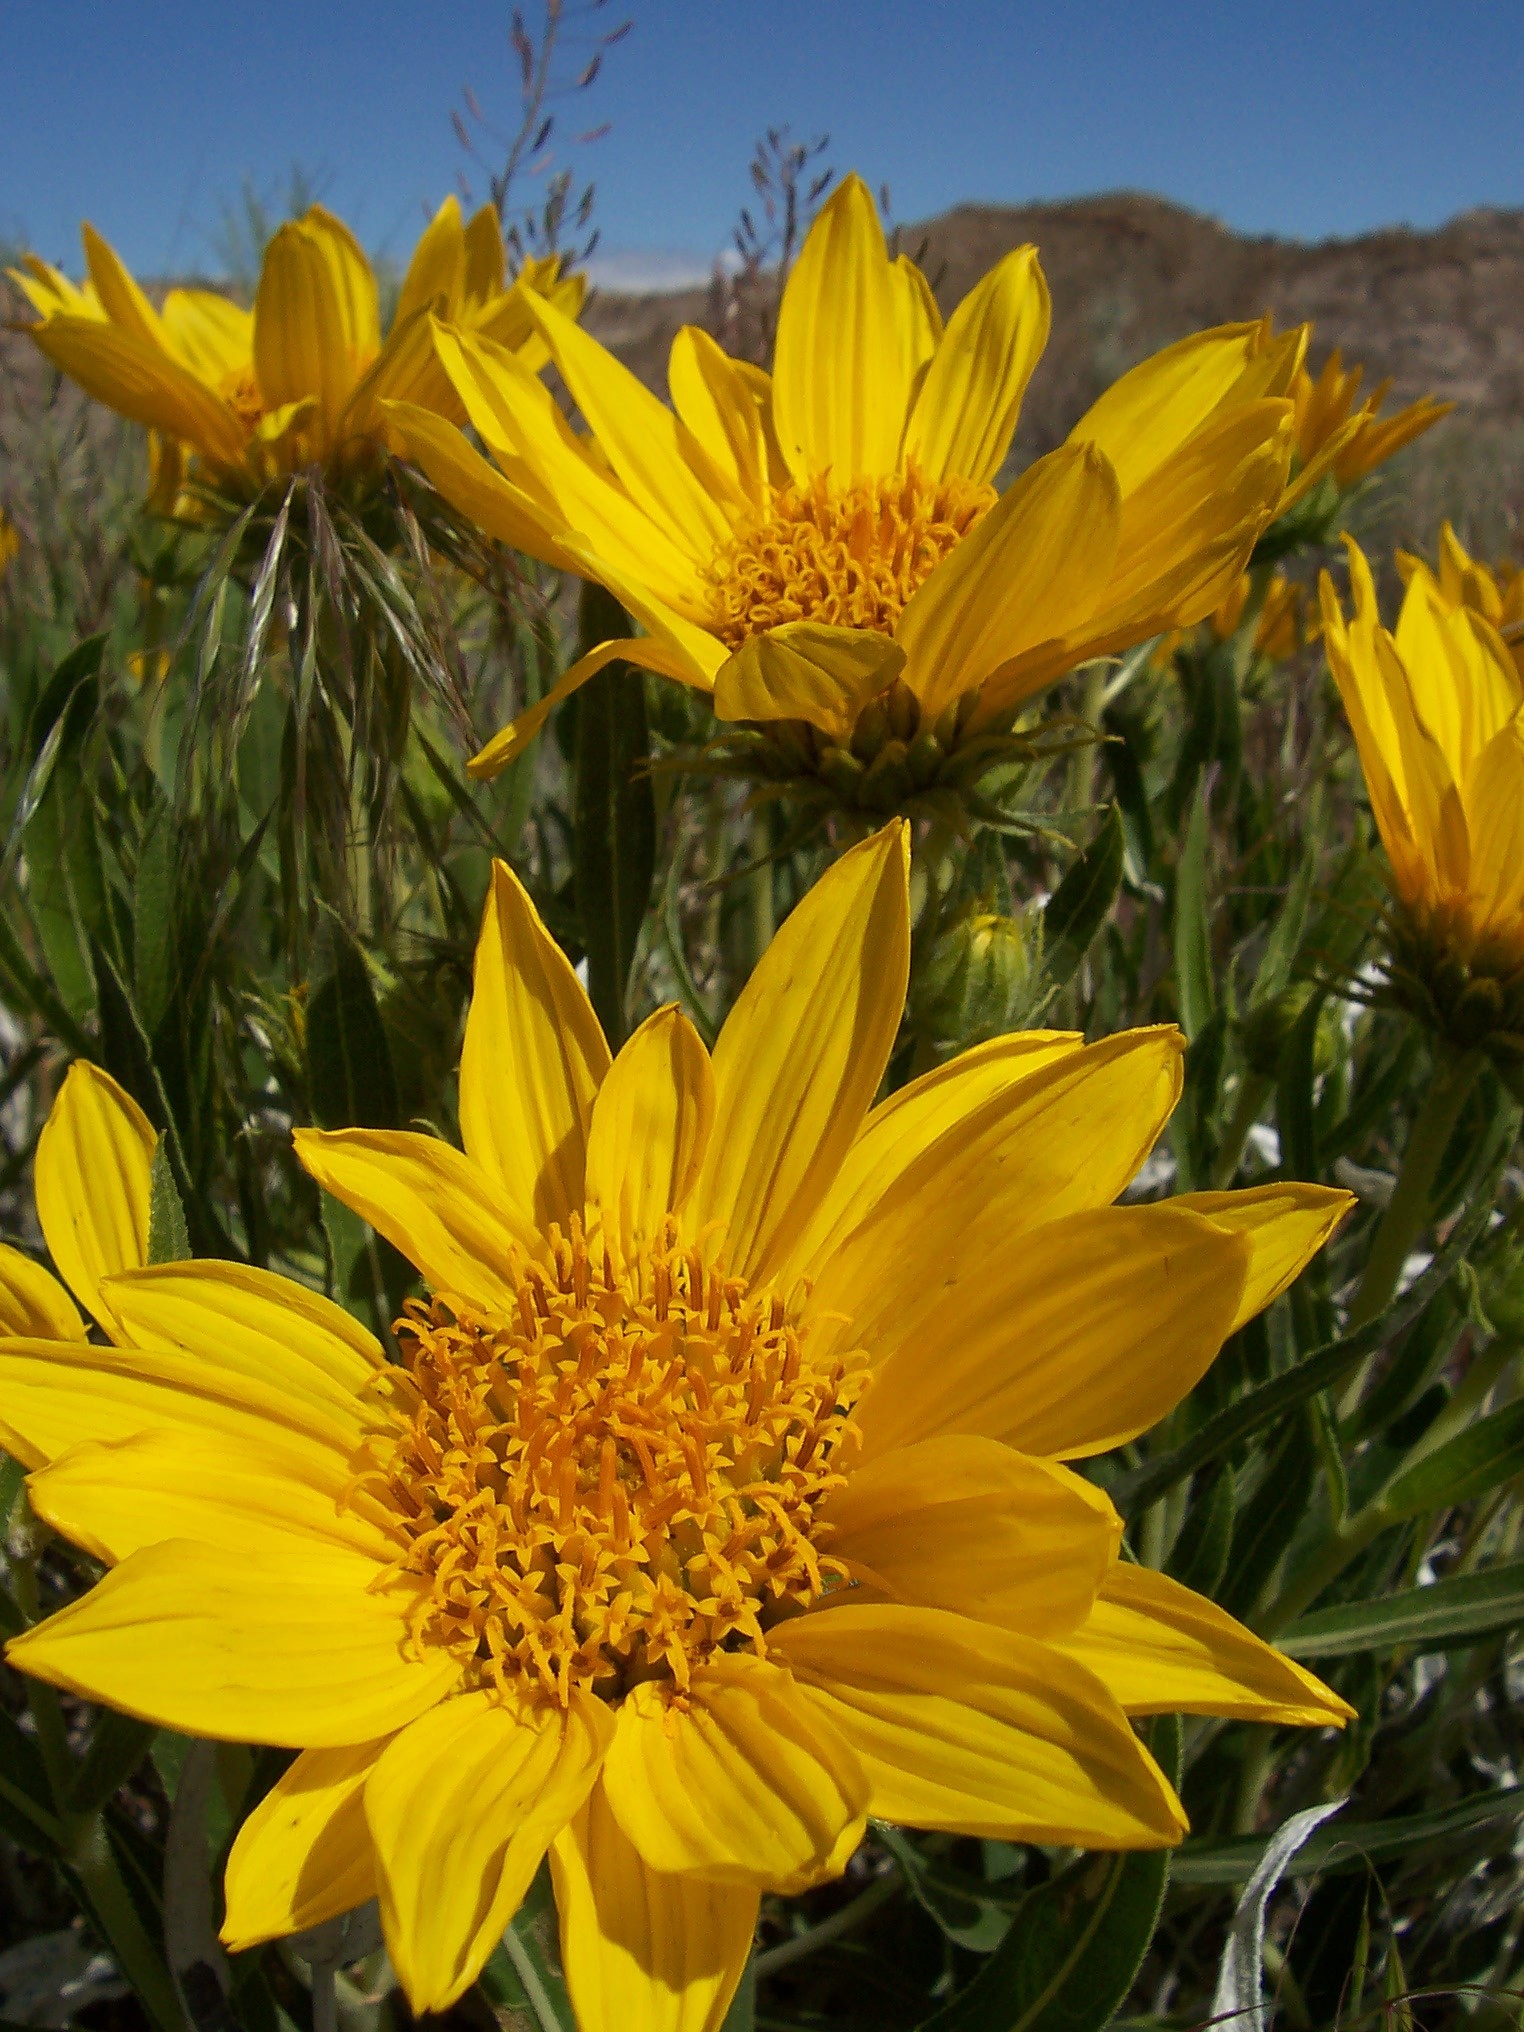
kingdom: Plantae
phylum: Tracheophyta
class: Magnoliopsida
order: Asterales
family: Asteraceae
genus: Scabrethia
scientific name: Scabrethia scabra
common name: Rough mules's-ears
